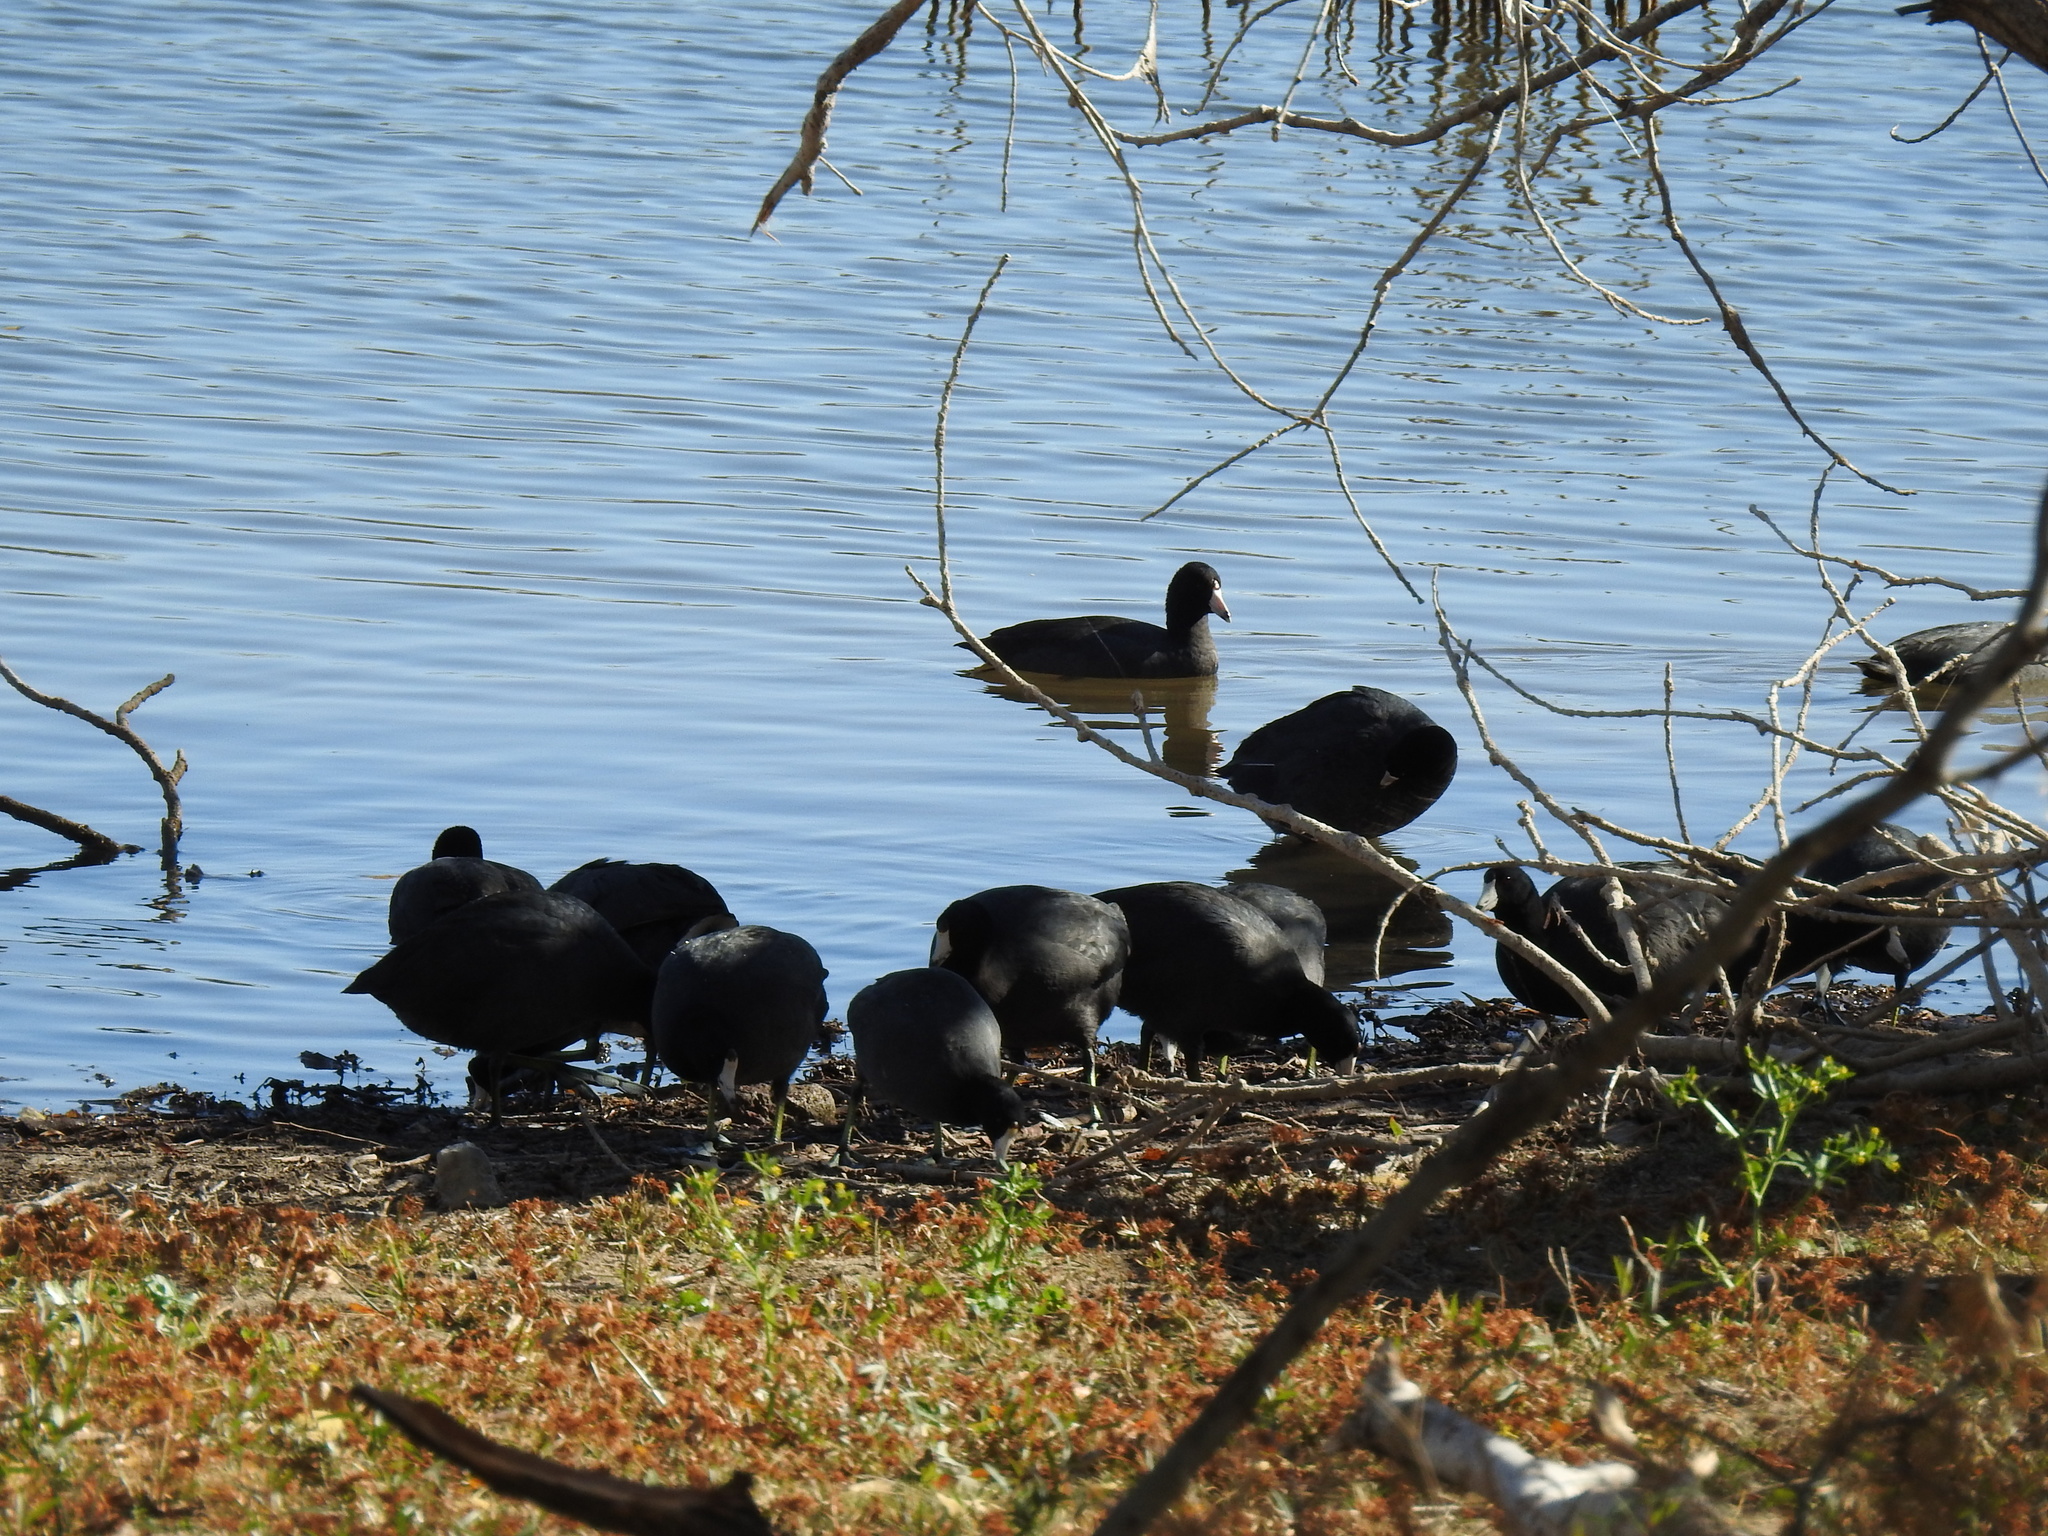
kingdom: Animalia
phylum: Chordata
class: Aves
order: Gruiformes
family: Rallidae
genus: Fulica
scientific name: Fulica americana
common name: American coot
